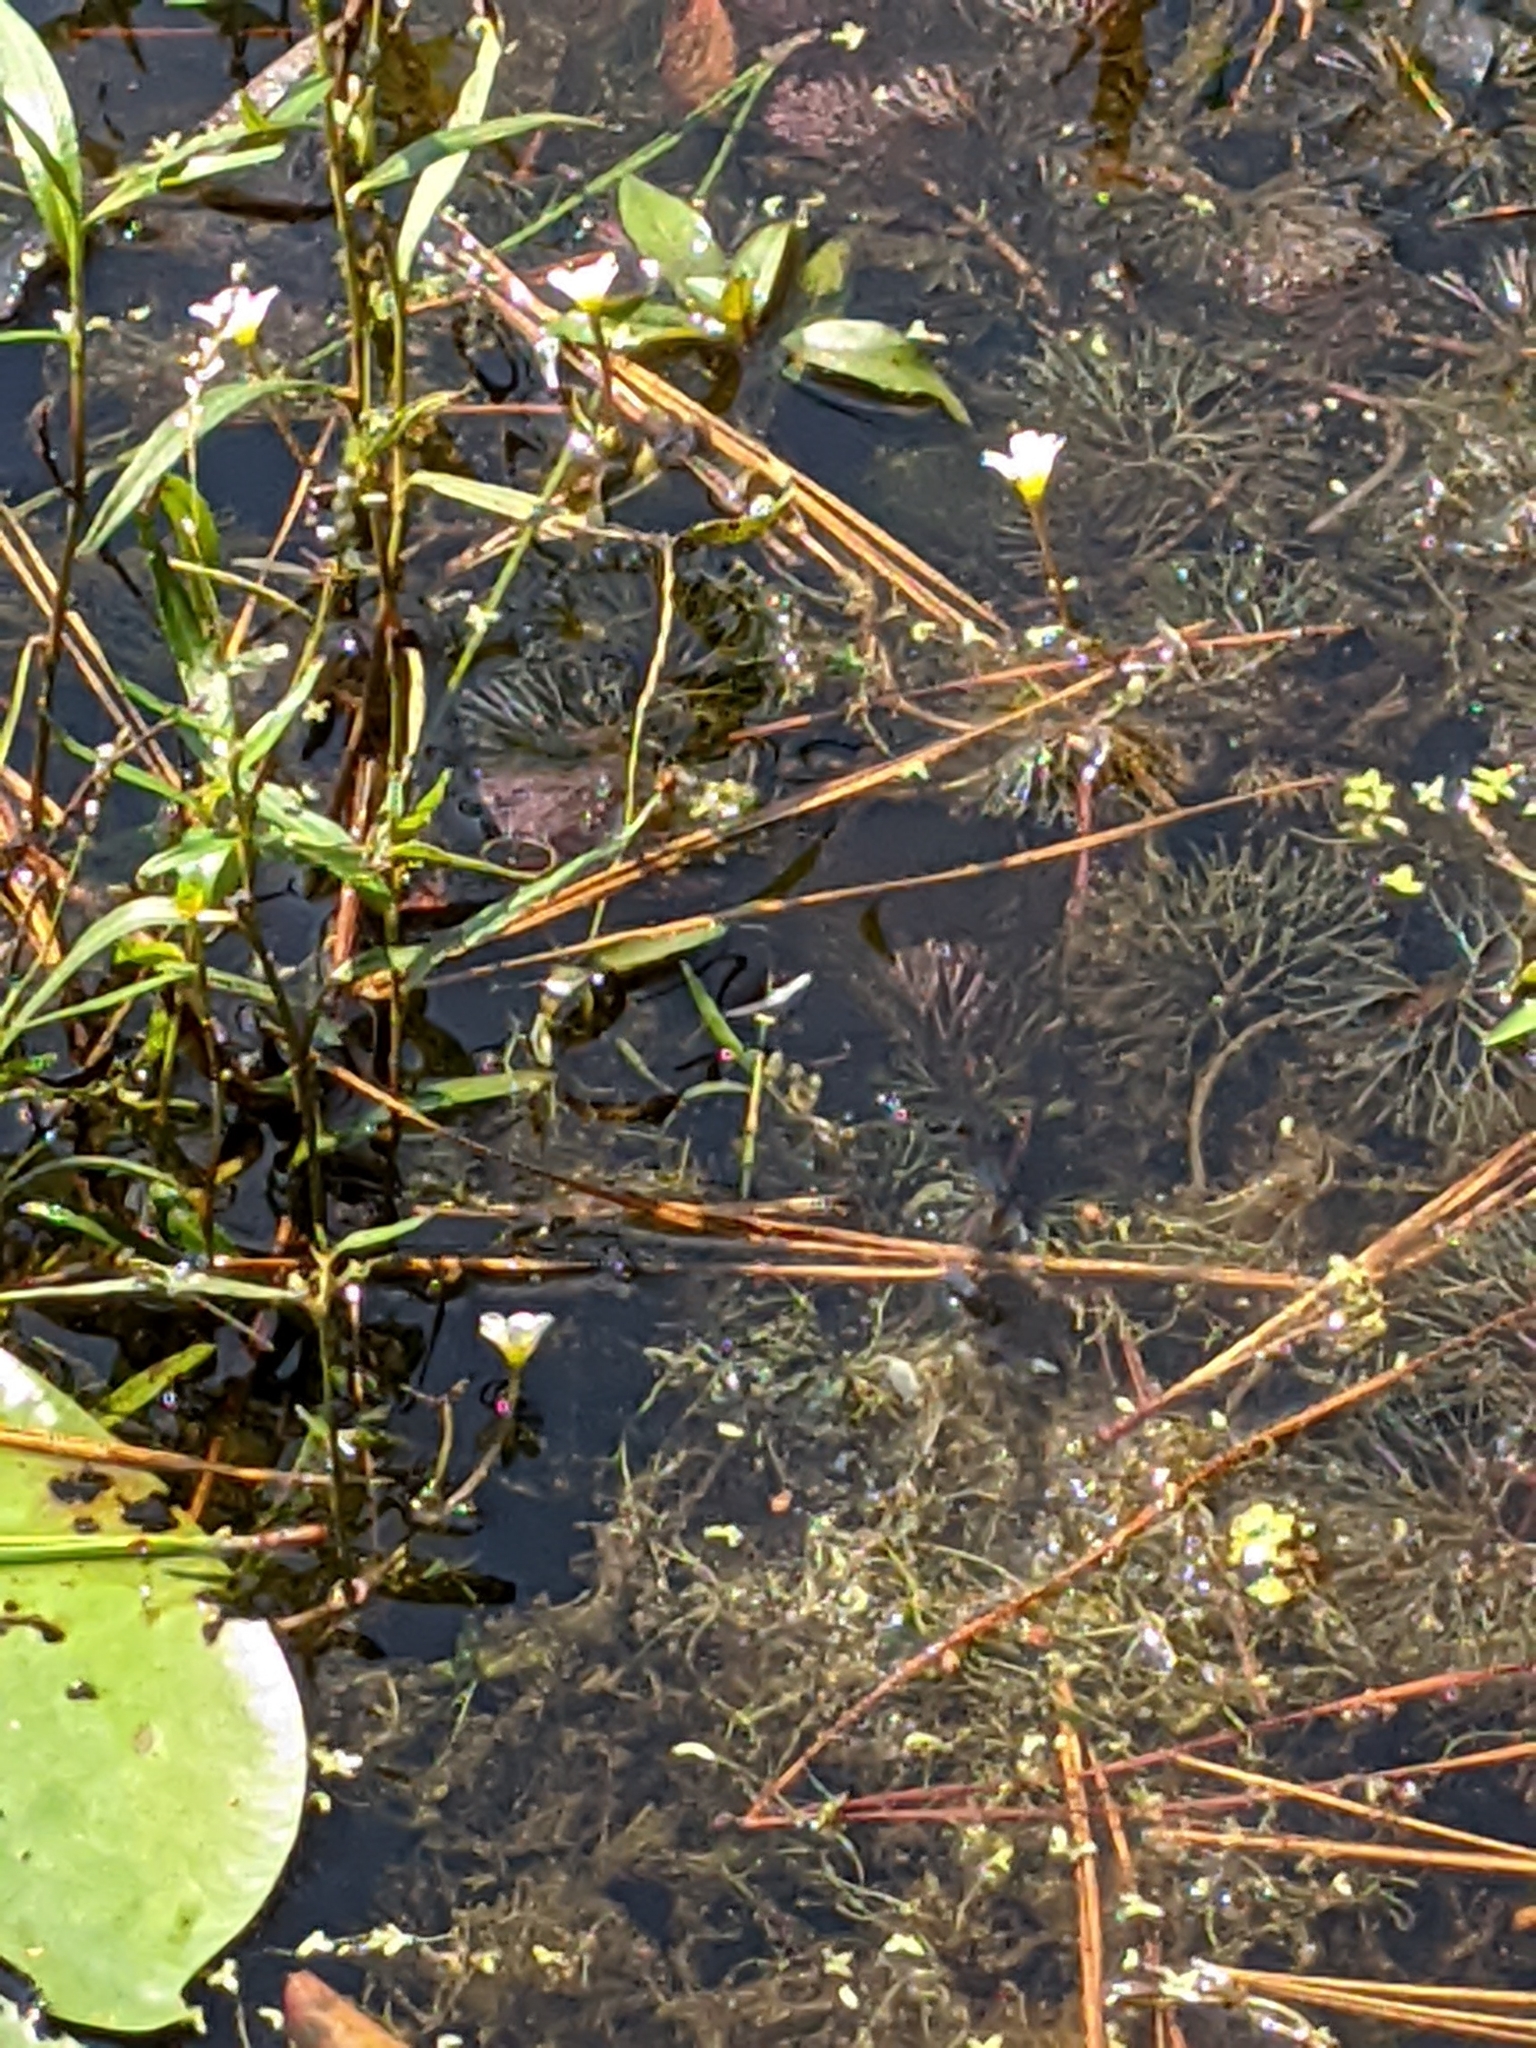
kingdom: Plantae
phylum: Tracheophyta
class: Magnoliopsida
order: Nymphaeales
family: Cabombaceae
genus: Cabomba
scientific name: Cabomba caroliniana
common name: Fanwort
